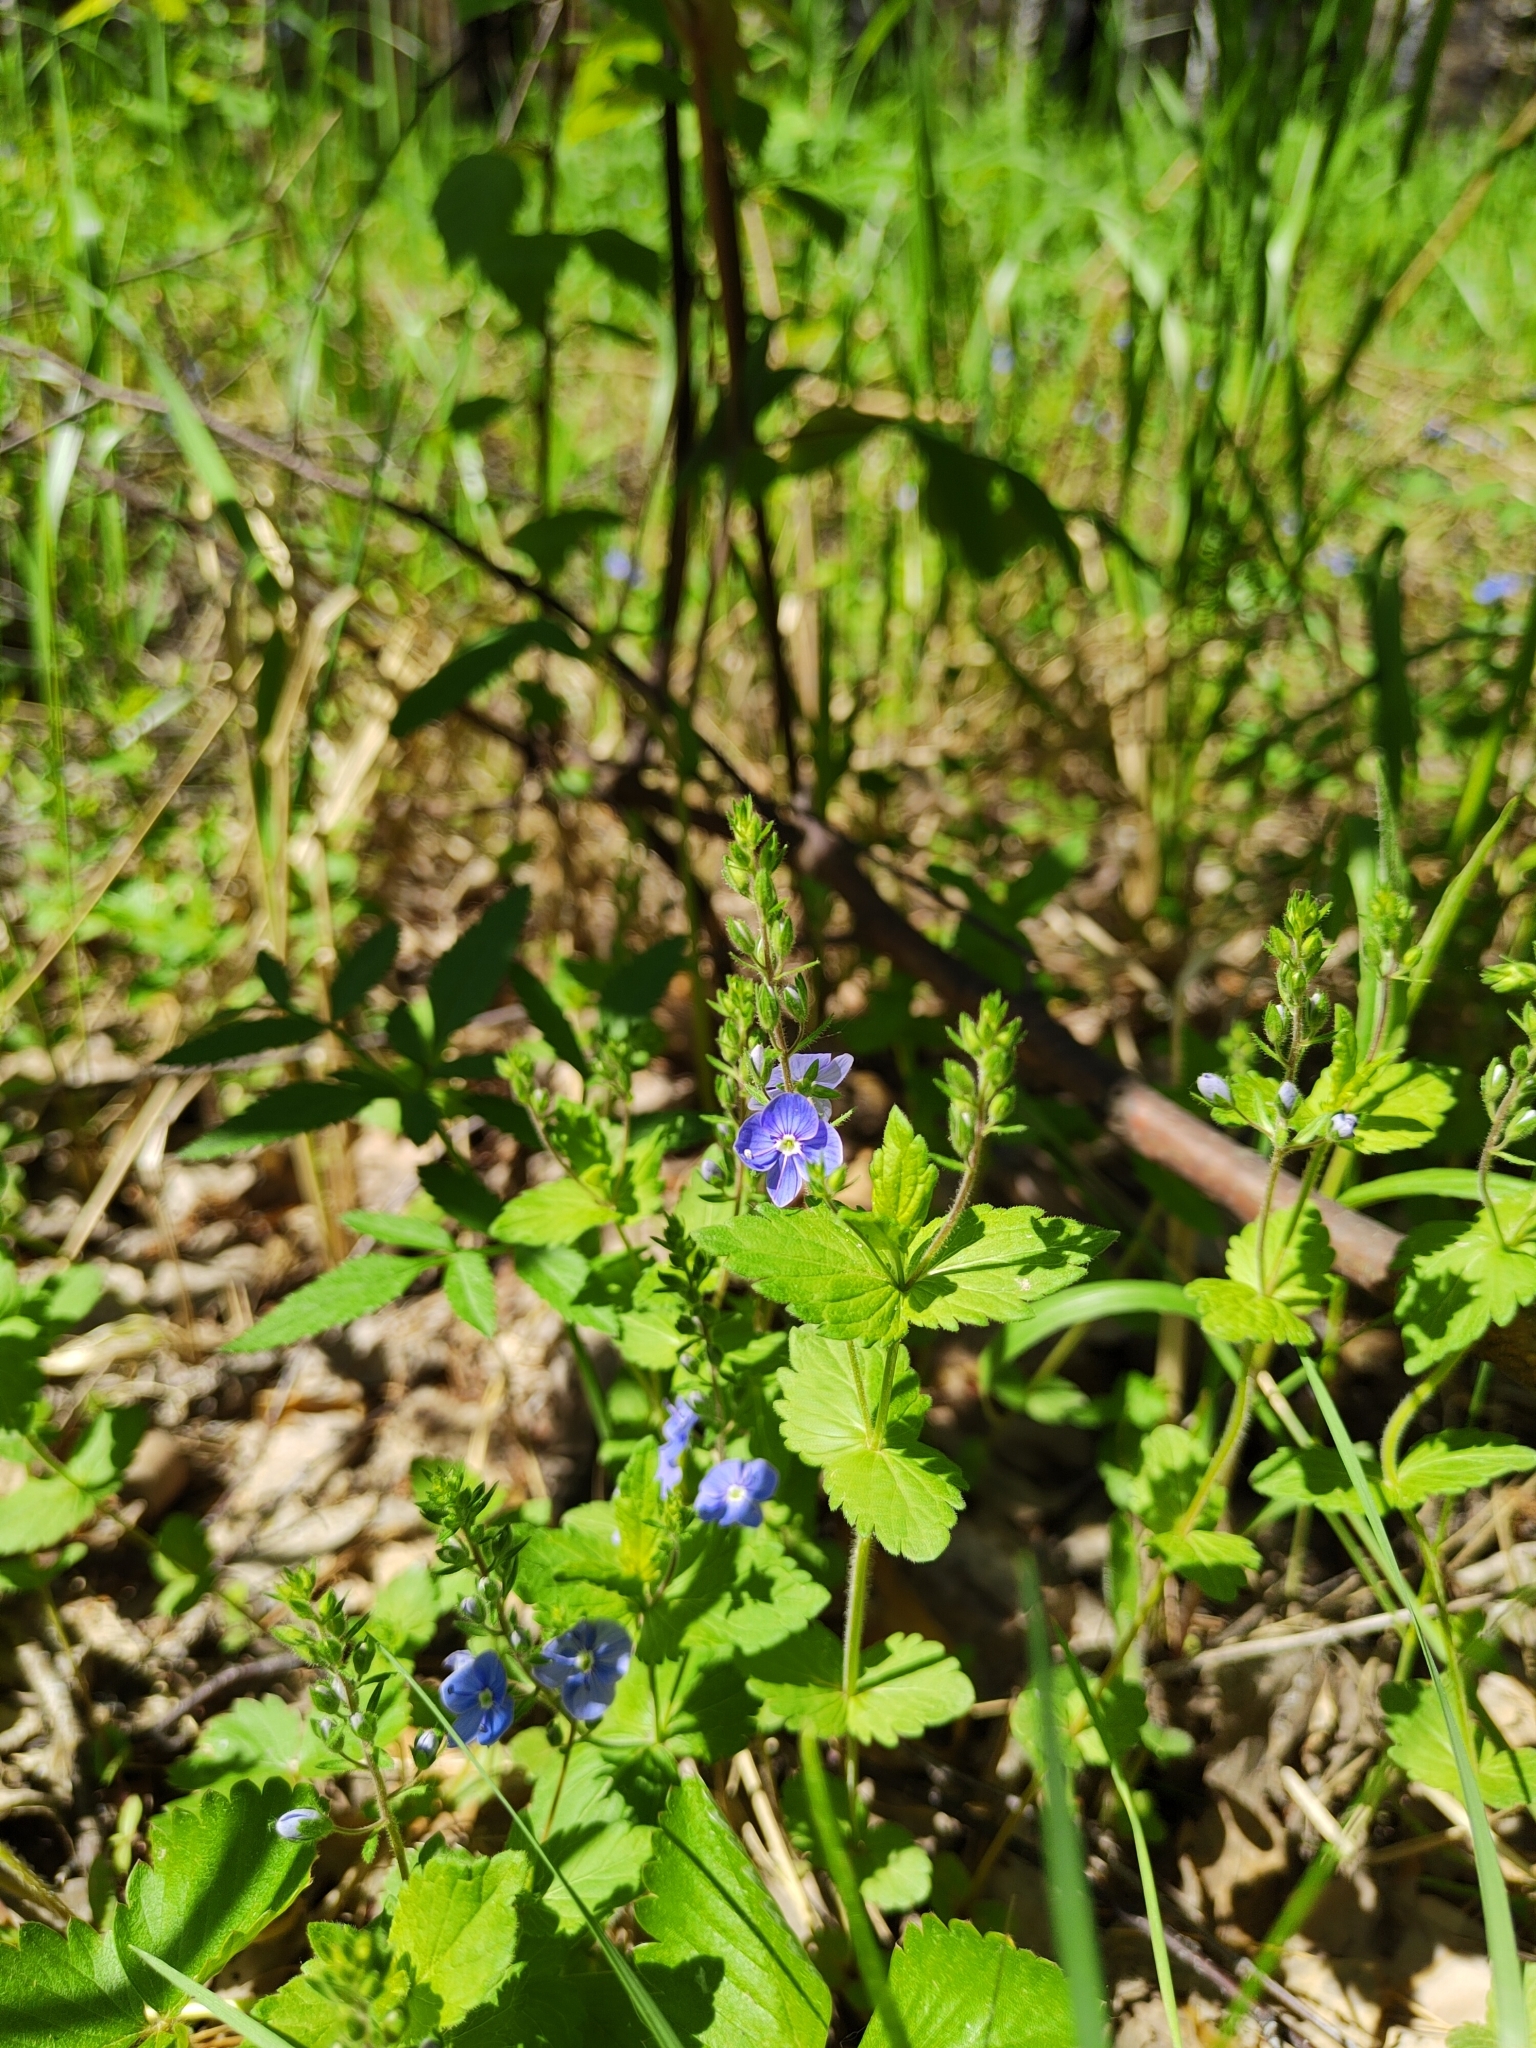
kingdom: Plantae
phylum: Tracheophyta
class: Magnoliopsida
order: Lamiales
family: Plantaginaceae
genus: Veronica
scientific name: Veronica chamaedrys
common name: Germander speedwell
